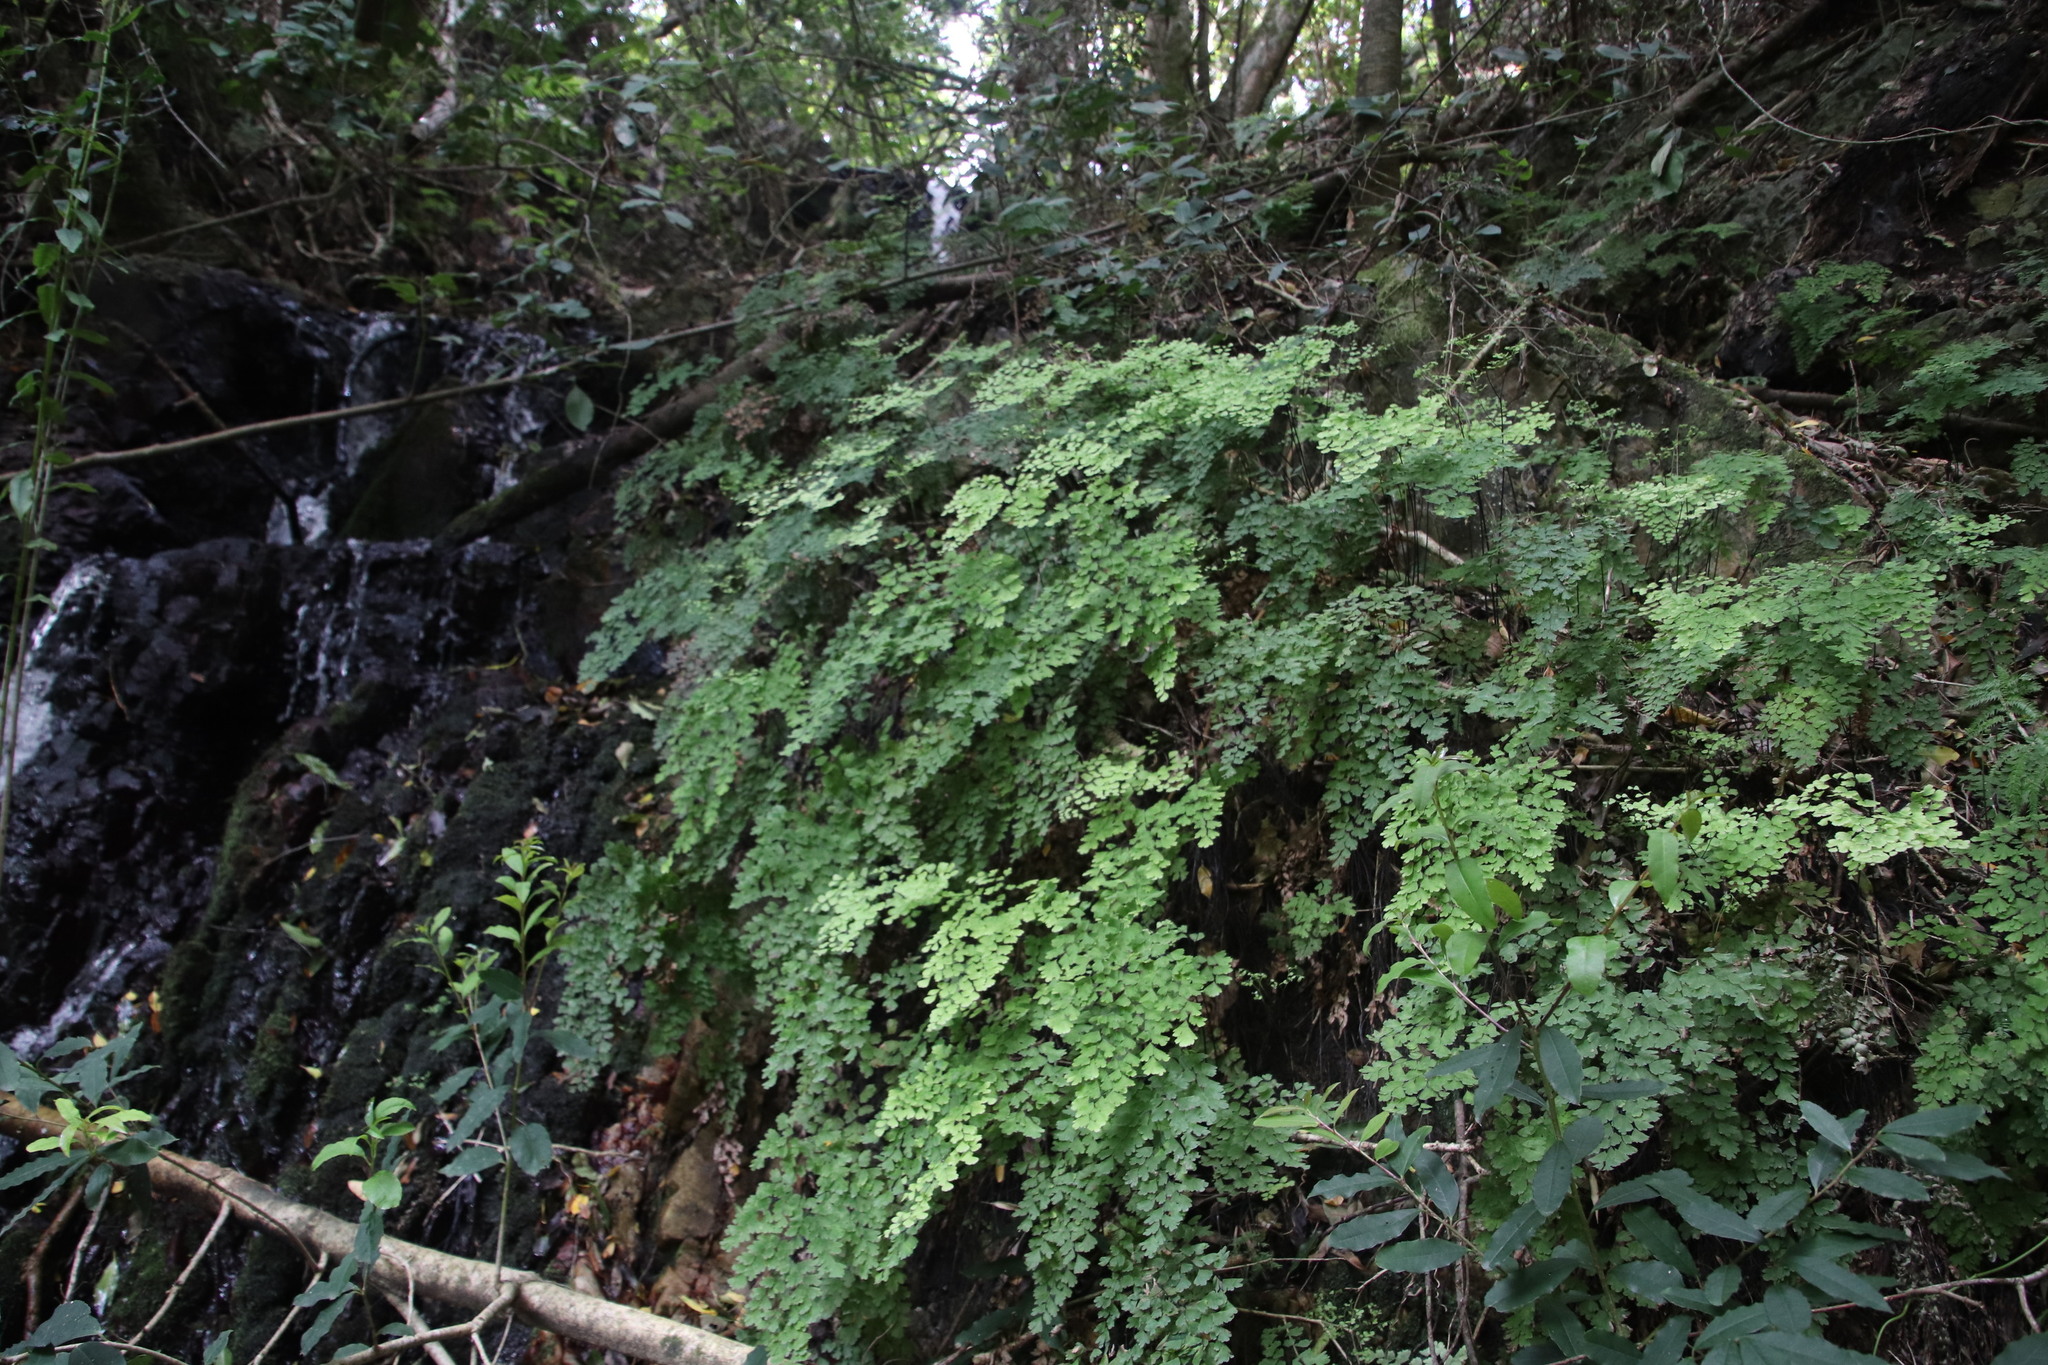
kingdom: Plantae
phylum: Tracheophyta
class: Polypodiopsida
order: Polypodiales
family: Pteridaceae
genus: Adiantum
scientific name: Adiantum capillus-veneris
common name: Maidenhair fern
